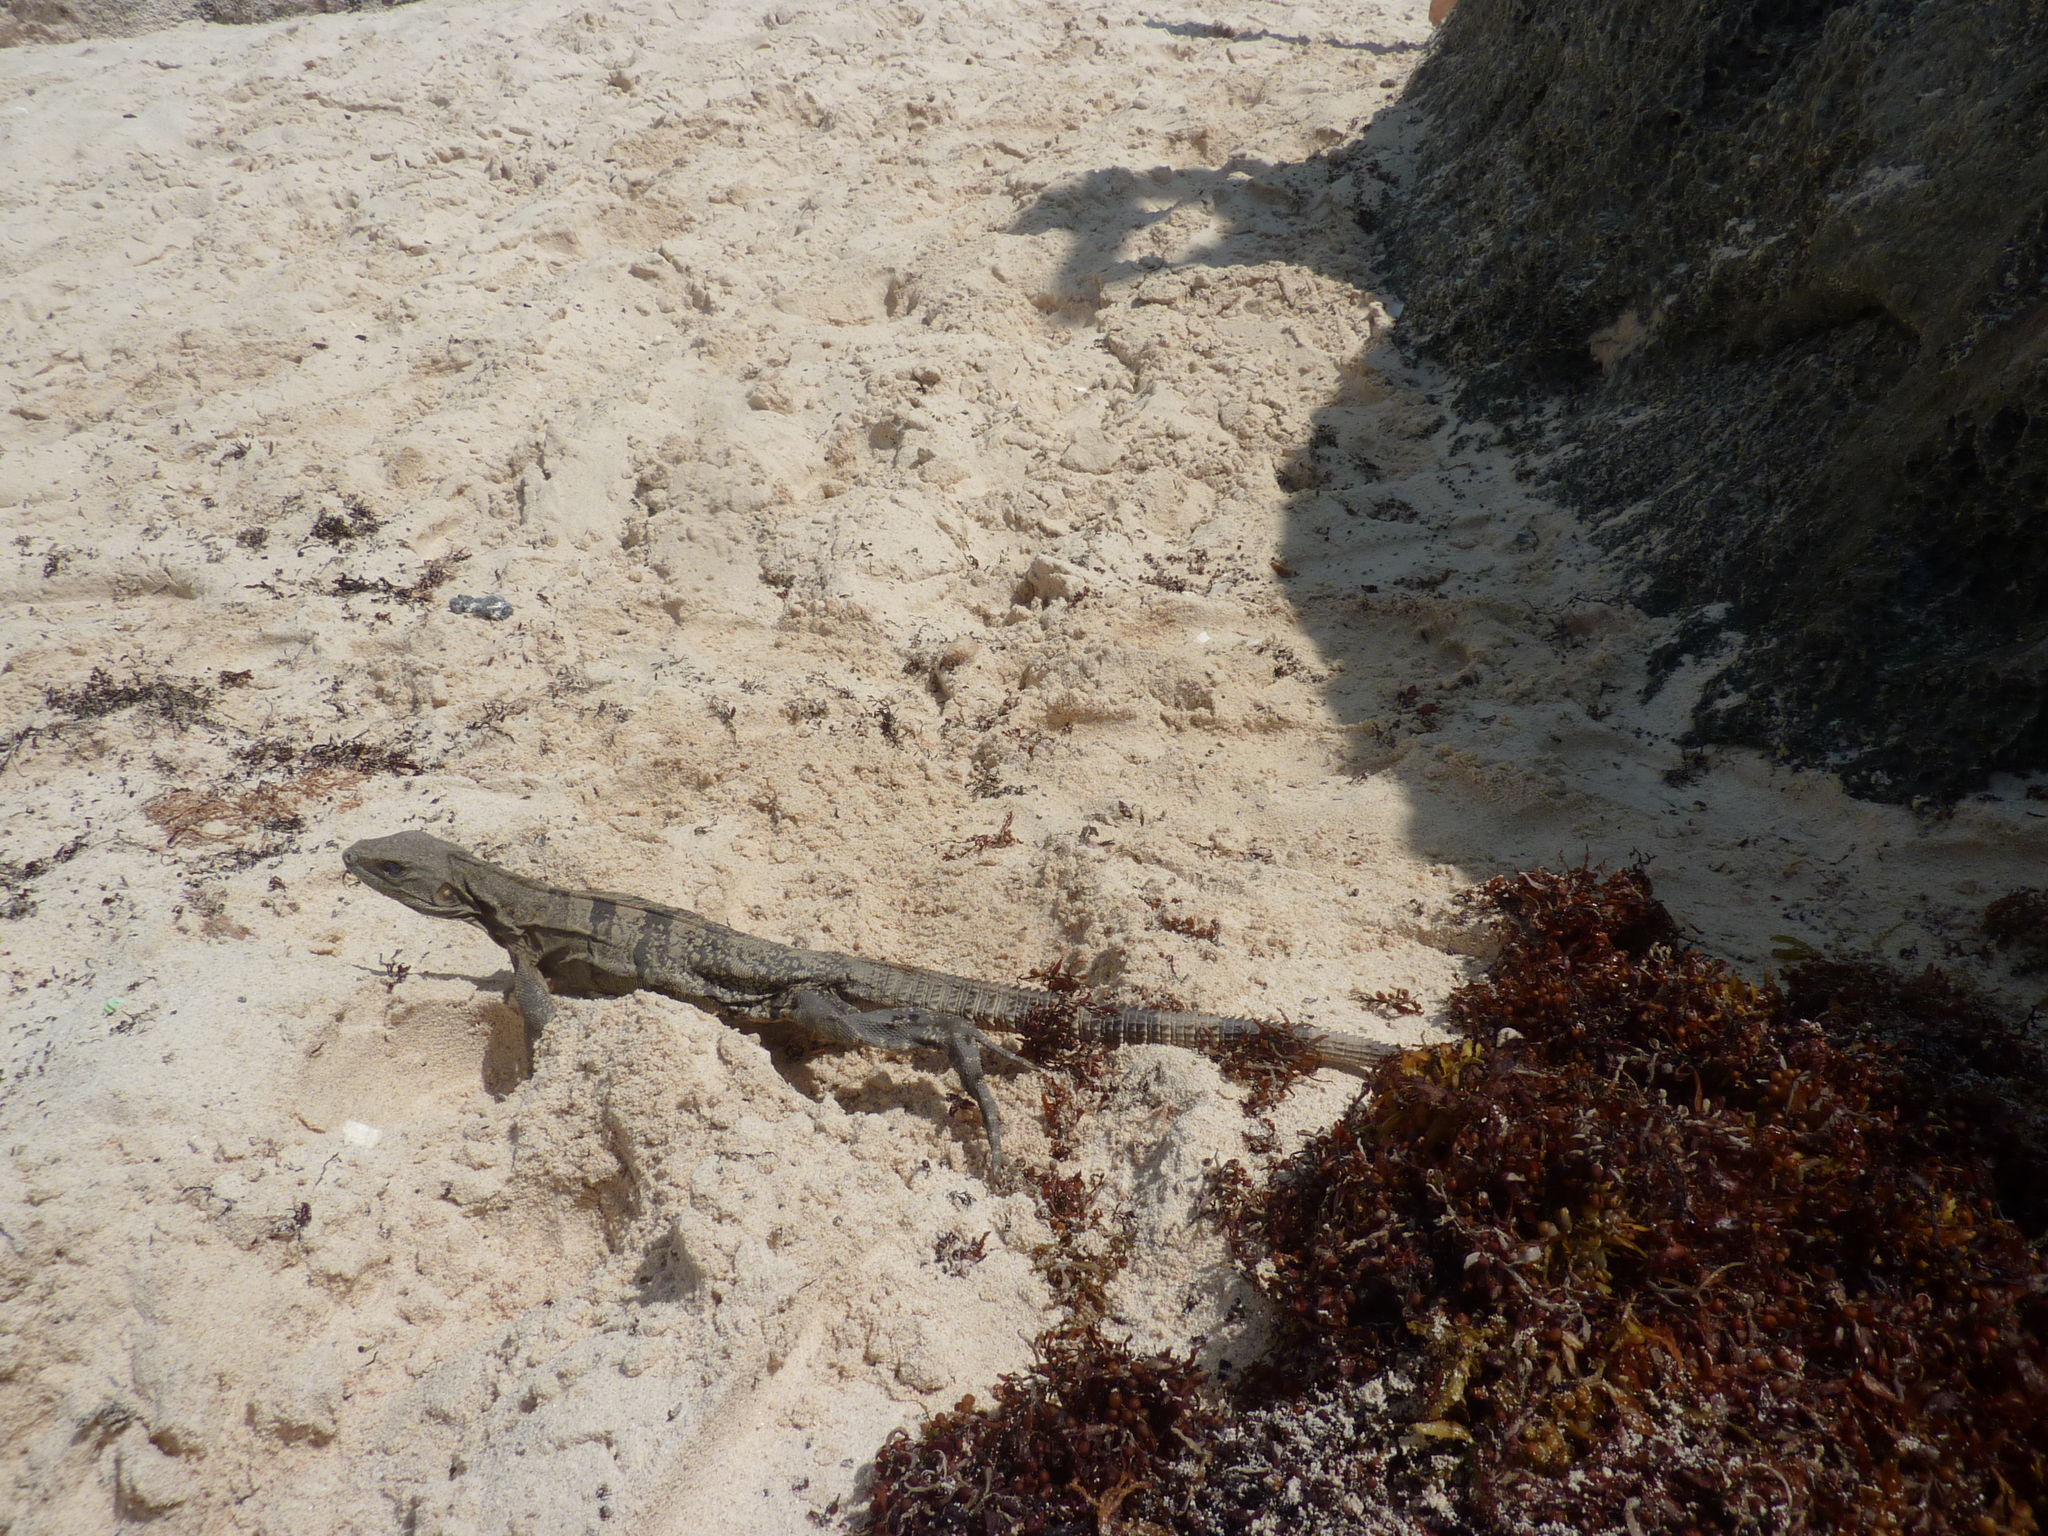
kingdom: Animalia
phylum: Chordata
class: Squamata
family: Iguanidae
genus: Ctenosaura
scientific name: Ctenosaura similis
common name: Black spiny-tailed iguana
